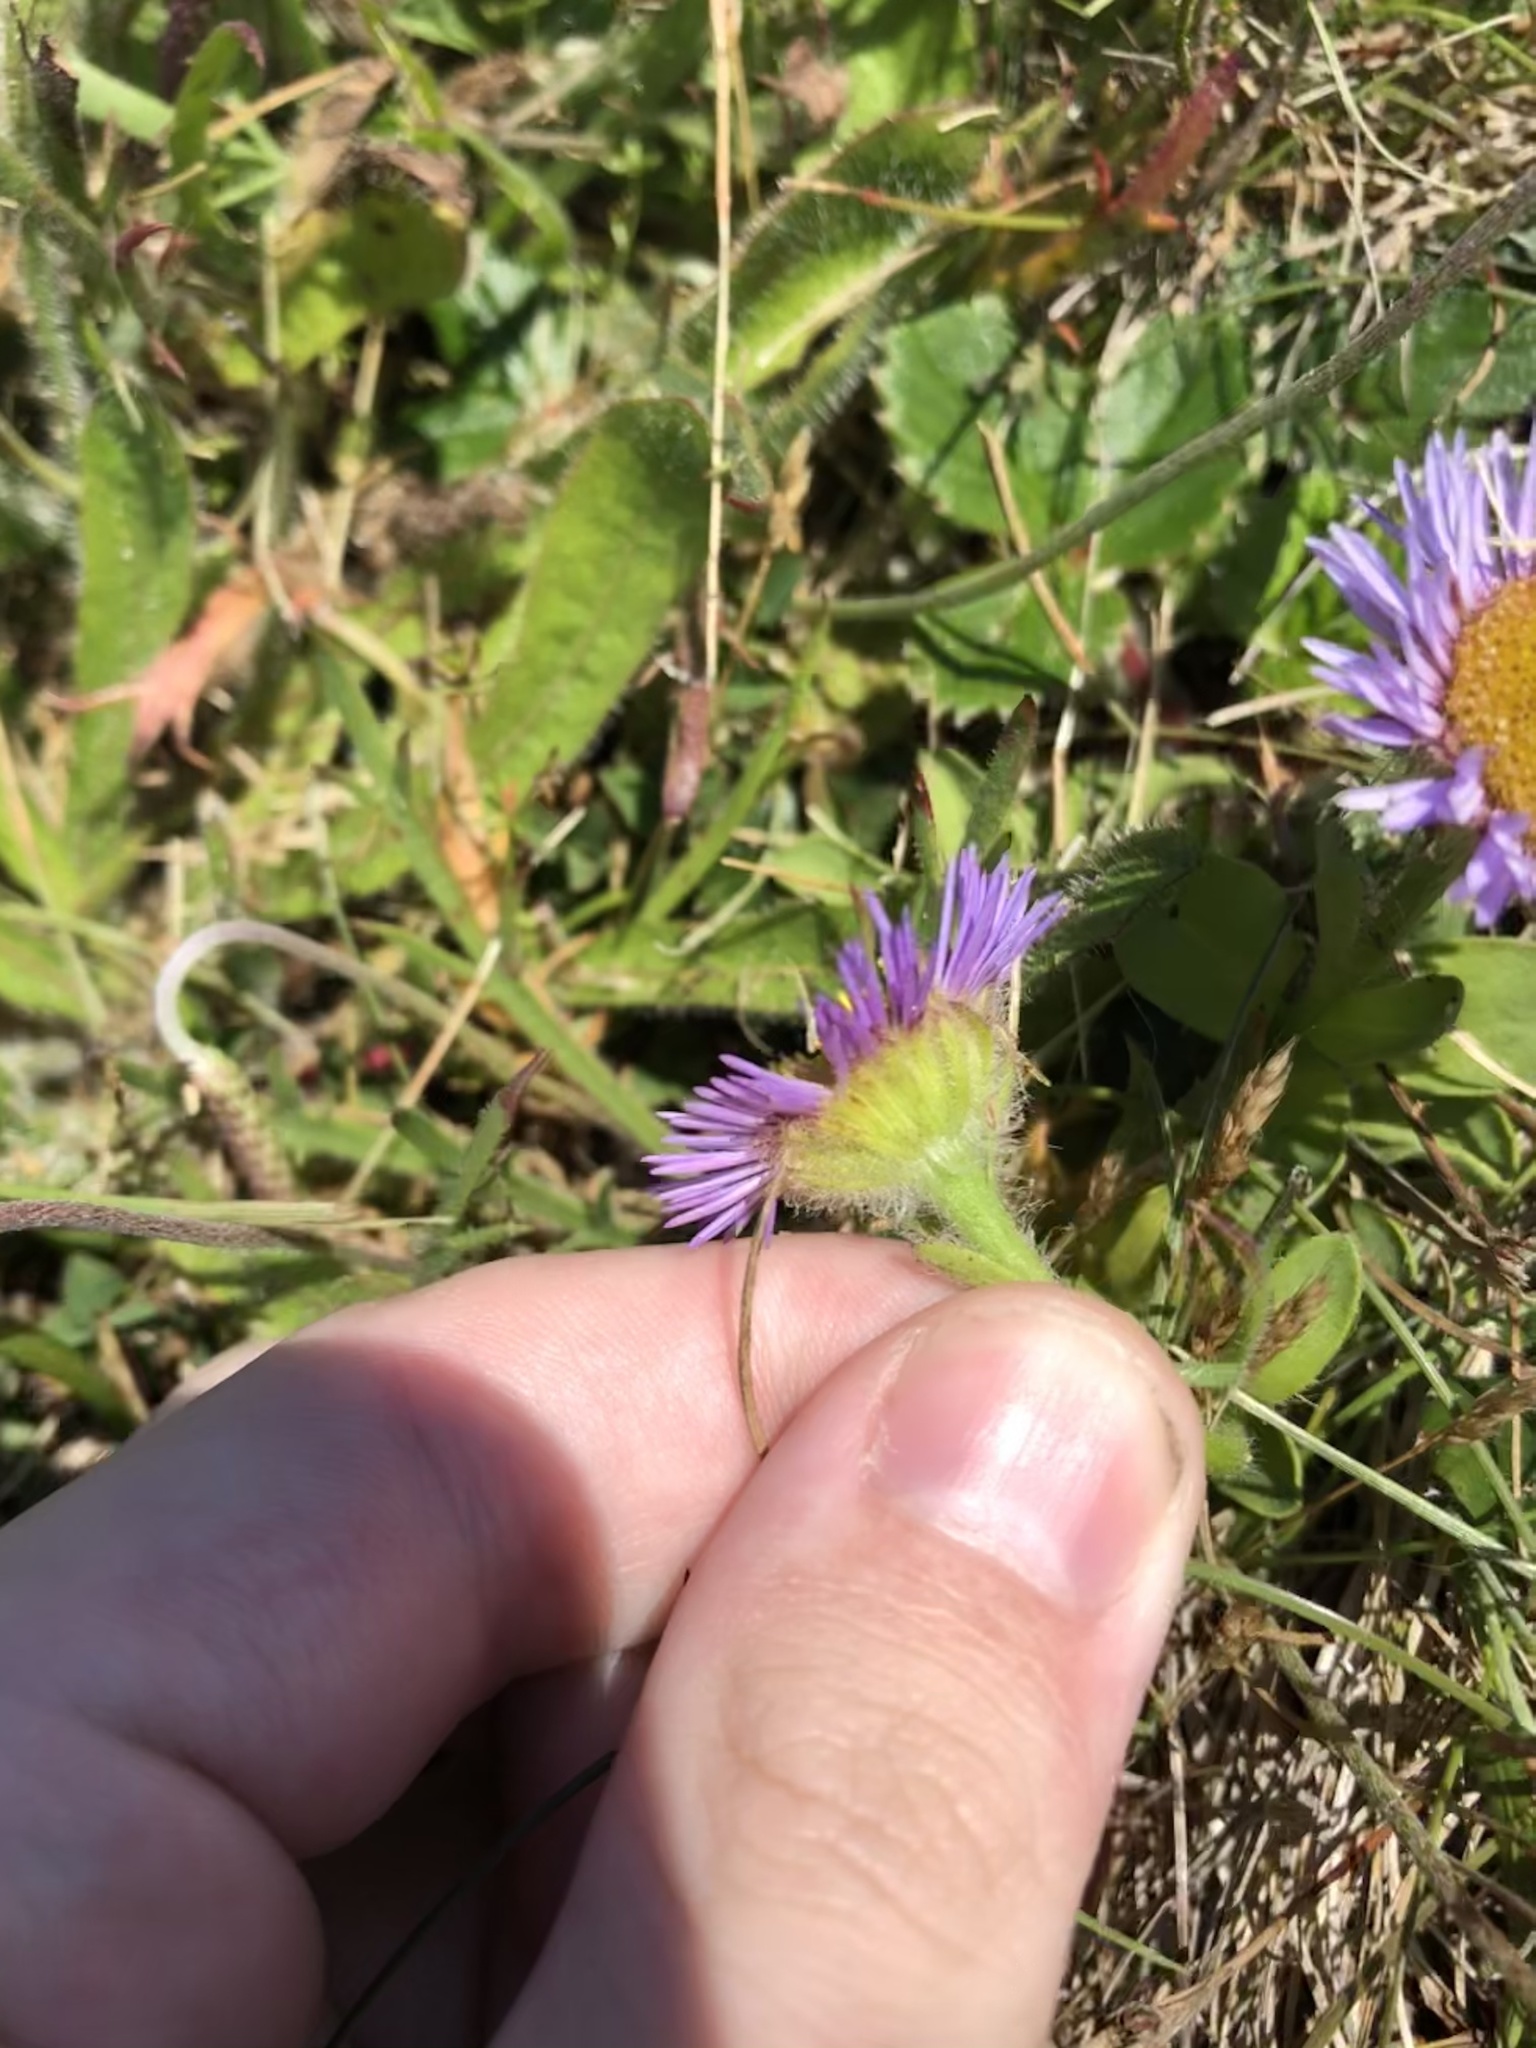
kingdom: Plantae
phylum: Tracheophyta
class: Magnoliopsida
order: Asterales
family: Asteraceae
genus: Erigeron
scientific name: Erigeron glaucus
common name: Seaside daisy
